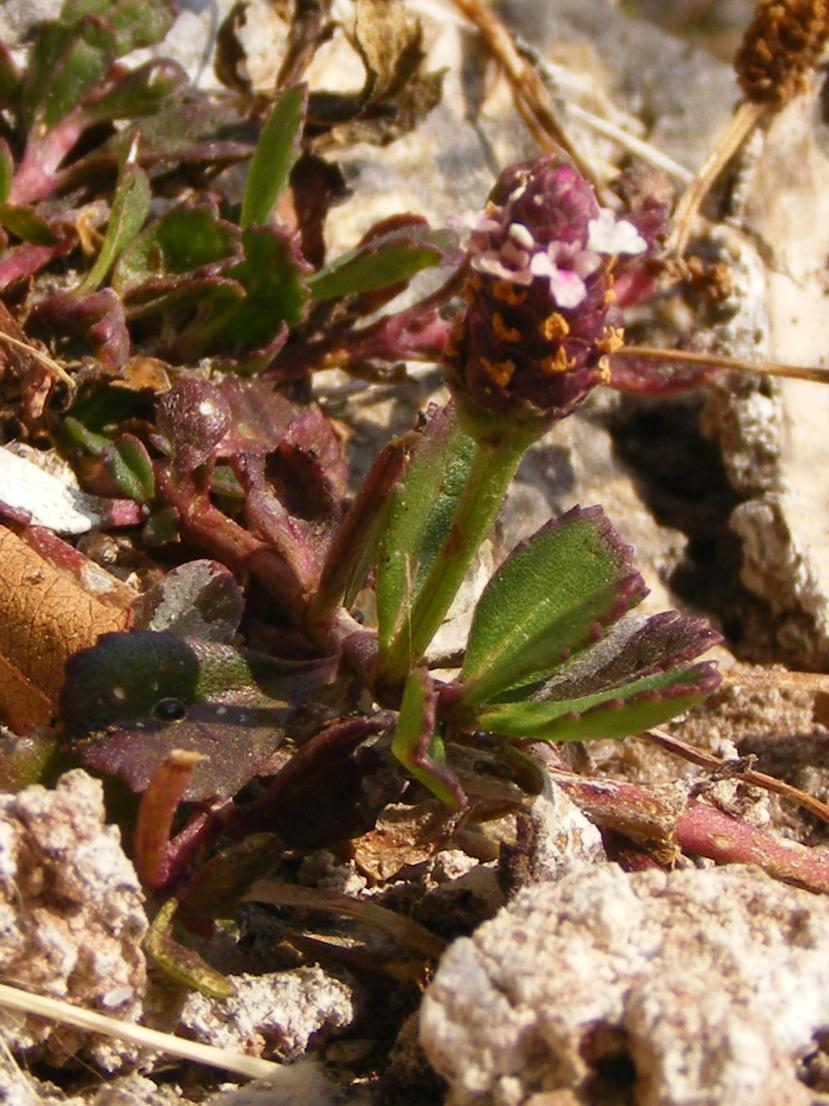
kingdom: Plantae
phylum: Tracheophyta
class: Magnoliopsida
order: Lamiales
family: Verbenaceae
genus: Phyla
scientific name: Phyla nodiflora
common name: Frogfruit
